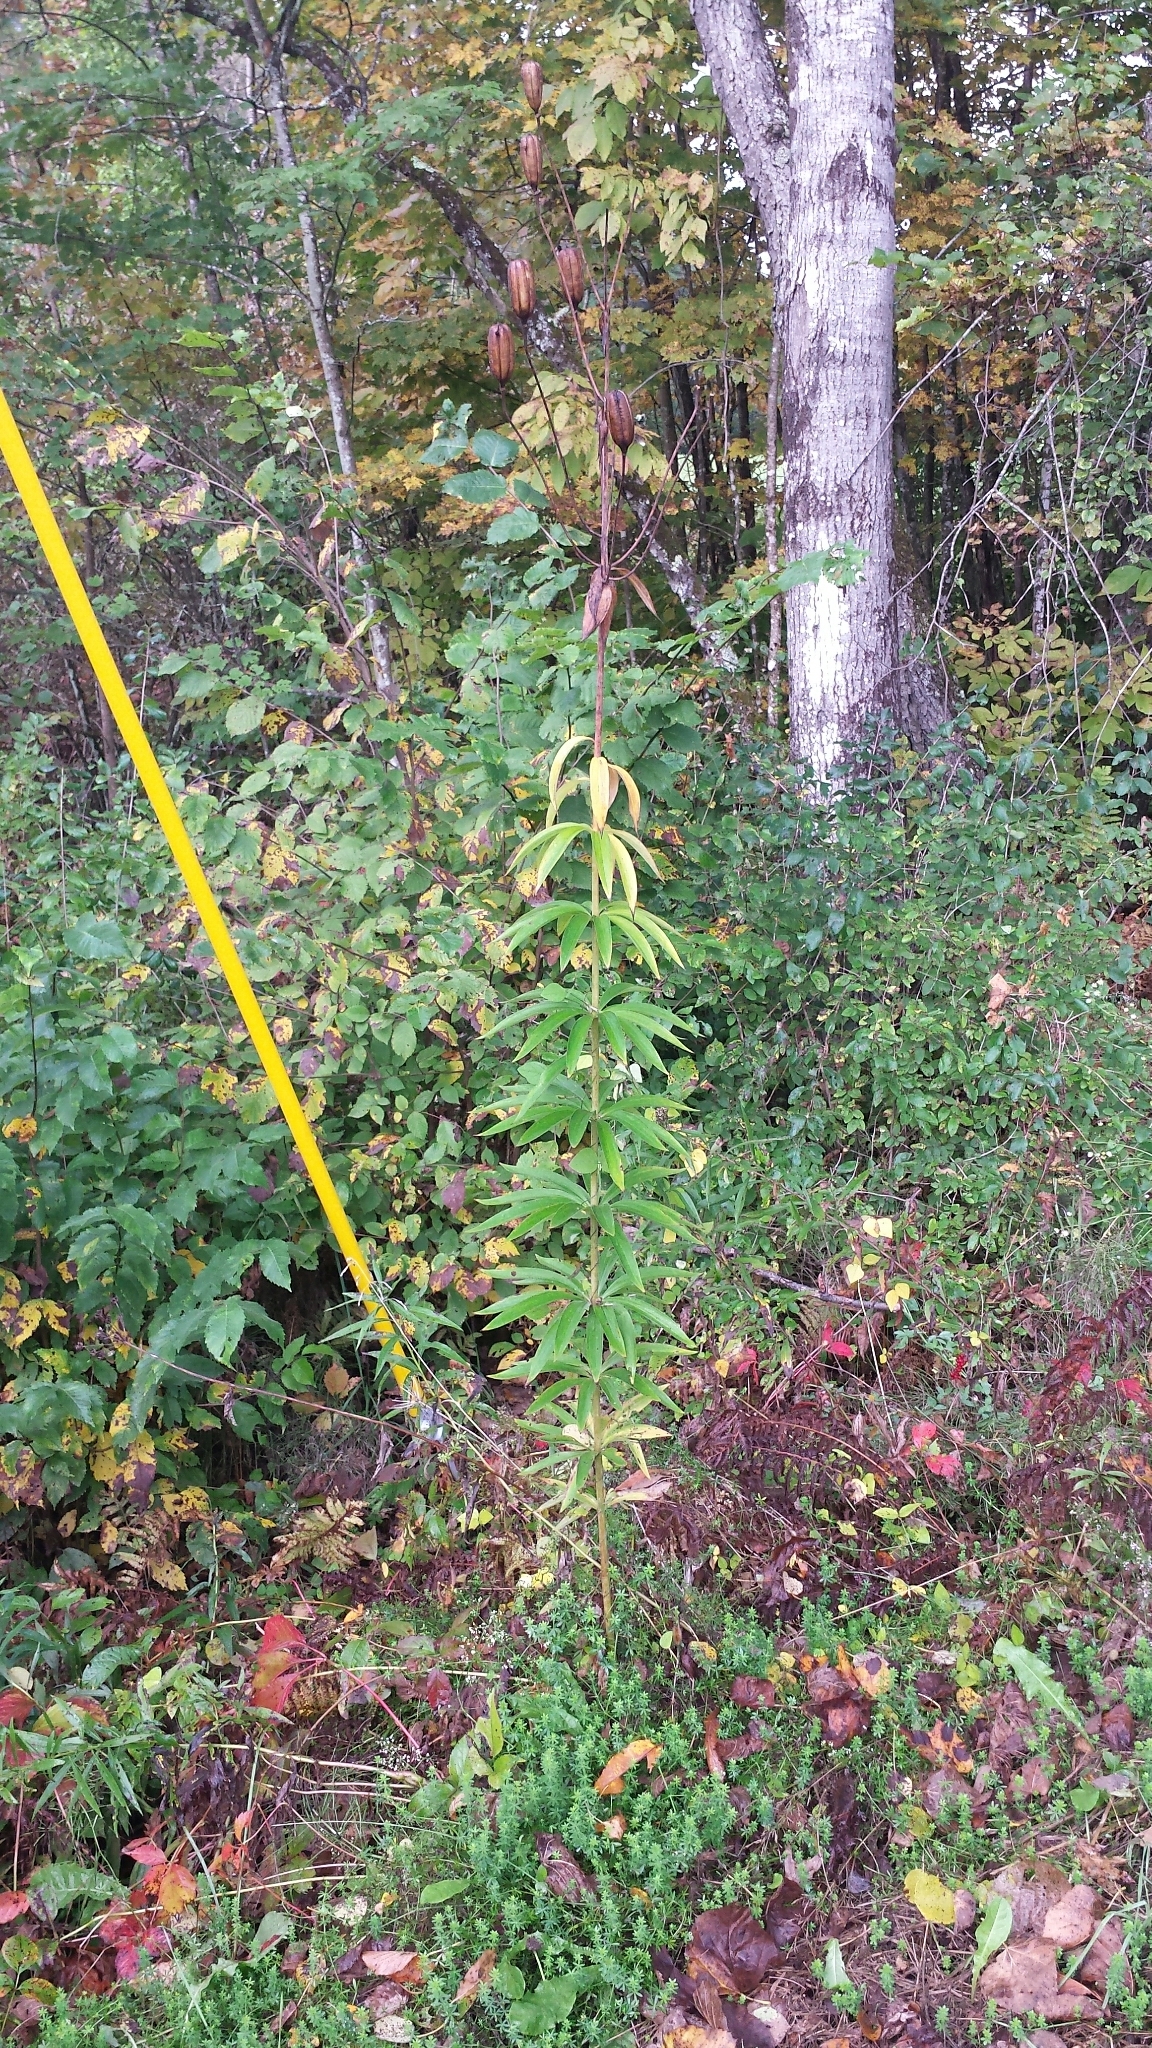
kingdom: Plantae
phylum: Tracheophyta
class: Liliopsida
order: Liliales
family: Liliaceae
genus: Lilium
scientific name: Lilium canadense
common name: Canada lily
